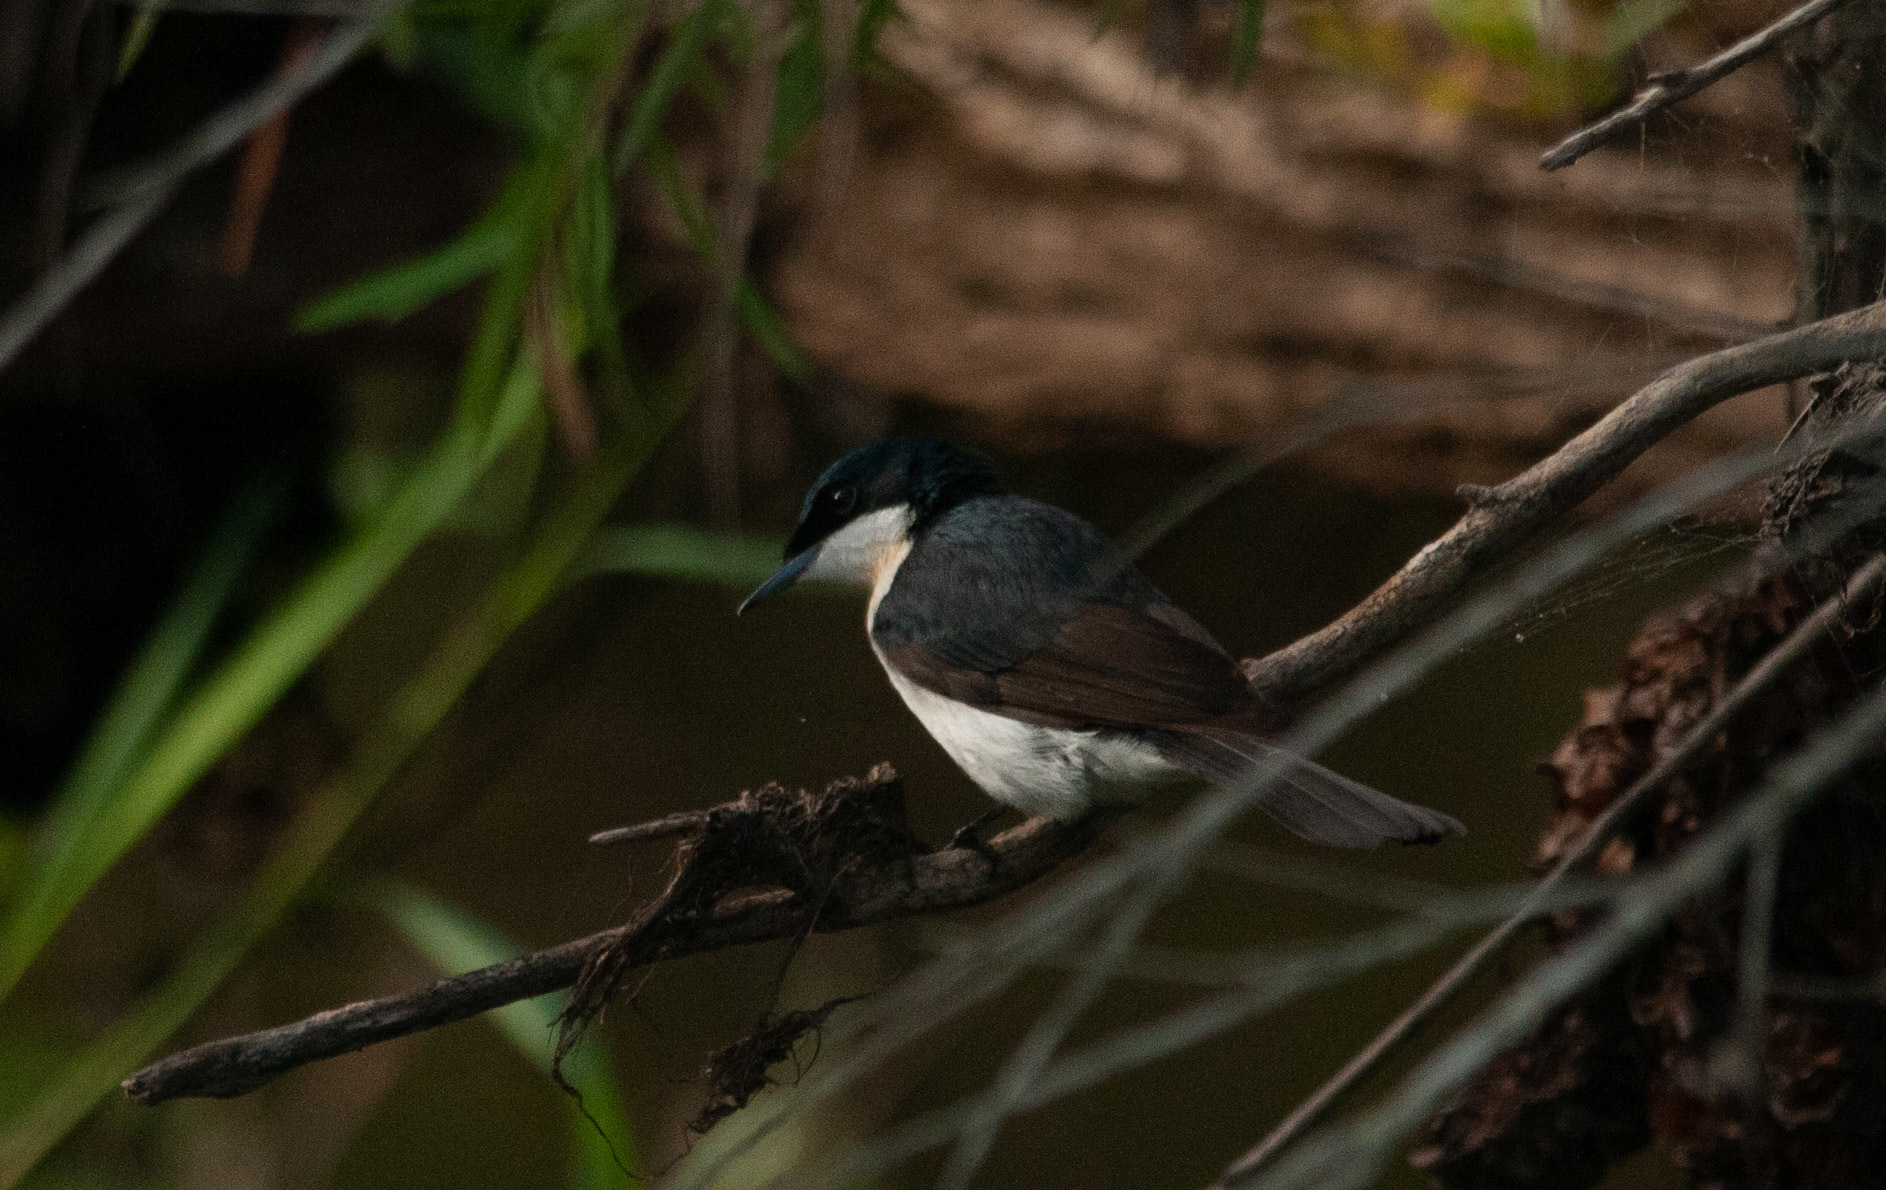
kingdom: Animalia
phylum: Chordata
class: Aves
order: Passeriformes
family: Monarchidae
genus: Myiagra
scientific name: Myiagra inquieta
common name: Restless flycatcher
